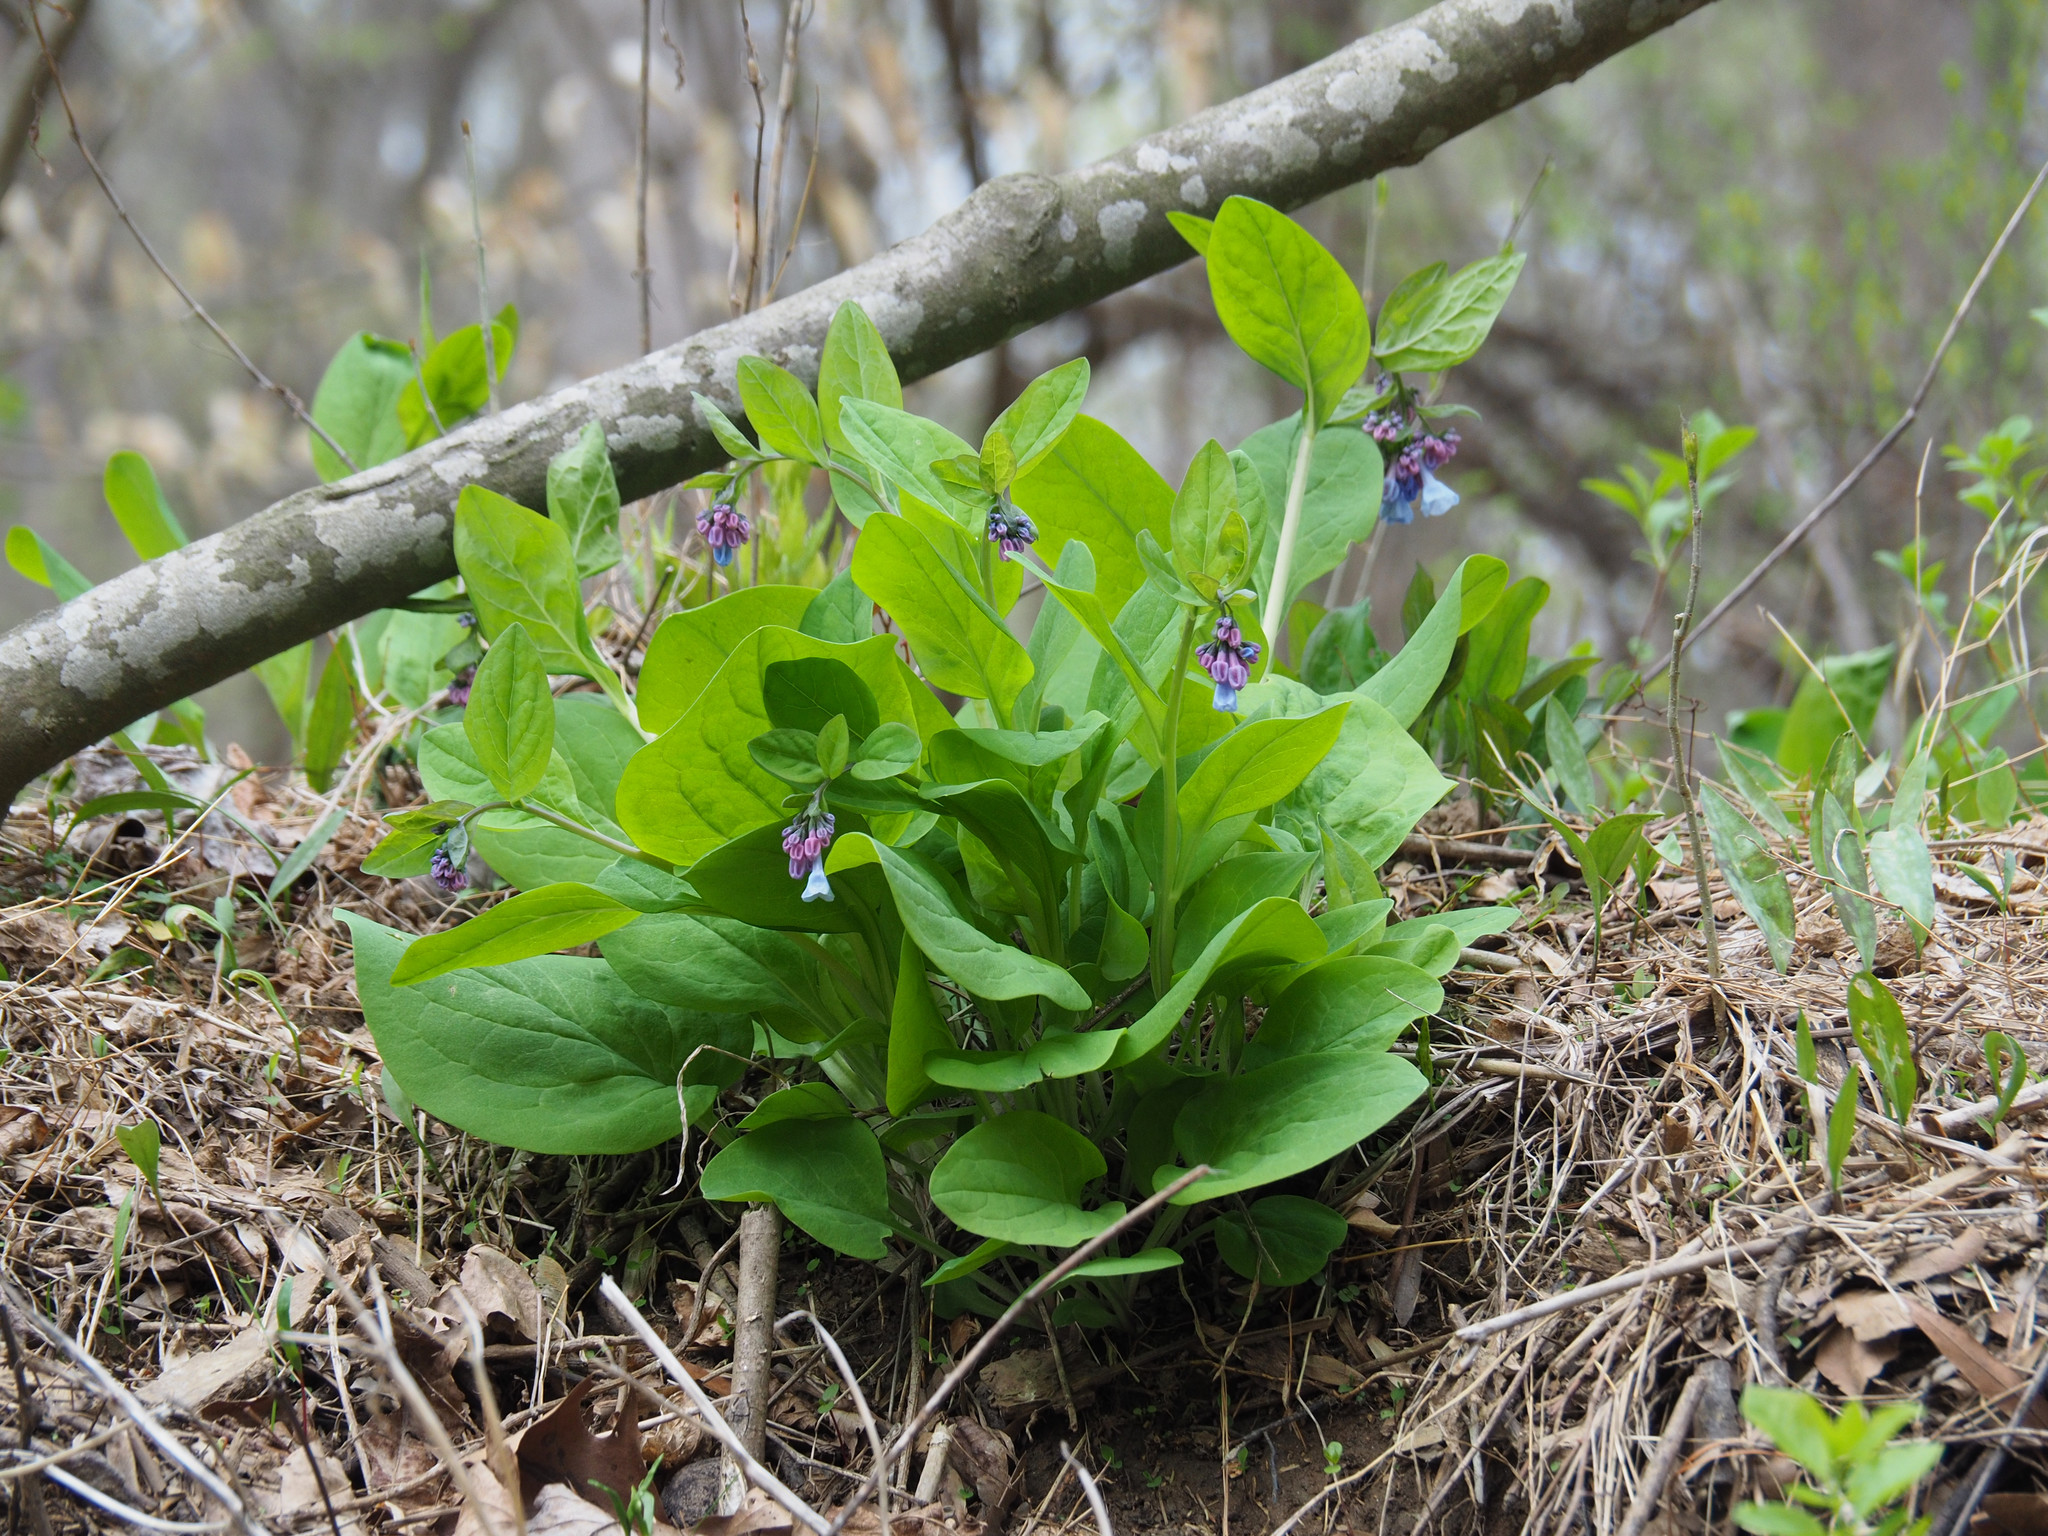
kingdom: Plantae
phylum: Tracheophyta
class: Magnoliopsida
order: Boraginales
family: Boraginaceae
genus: Mertensia
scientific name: Mertensia virginica
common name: Virginia bluebells
